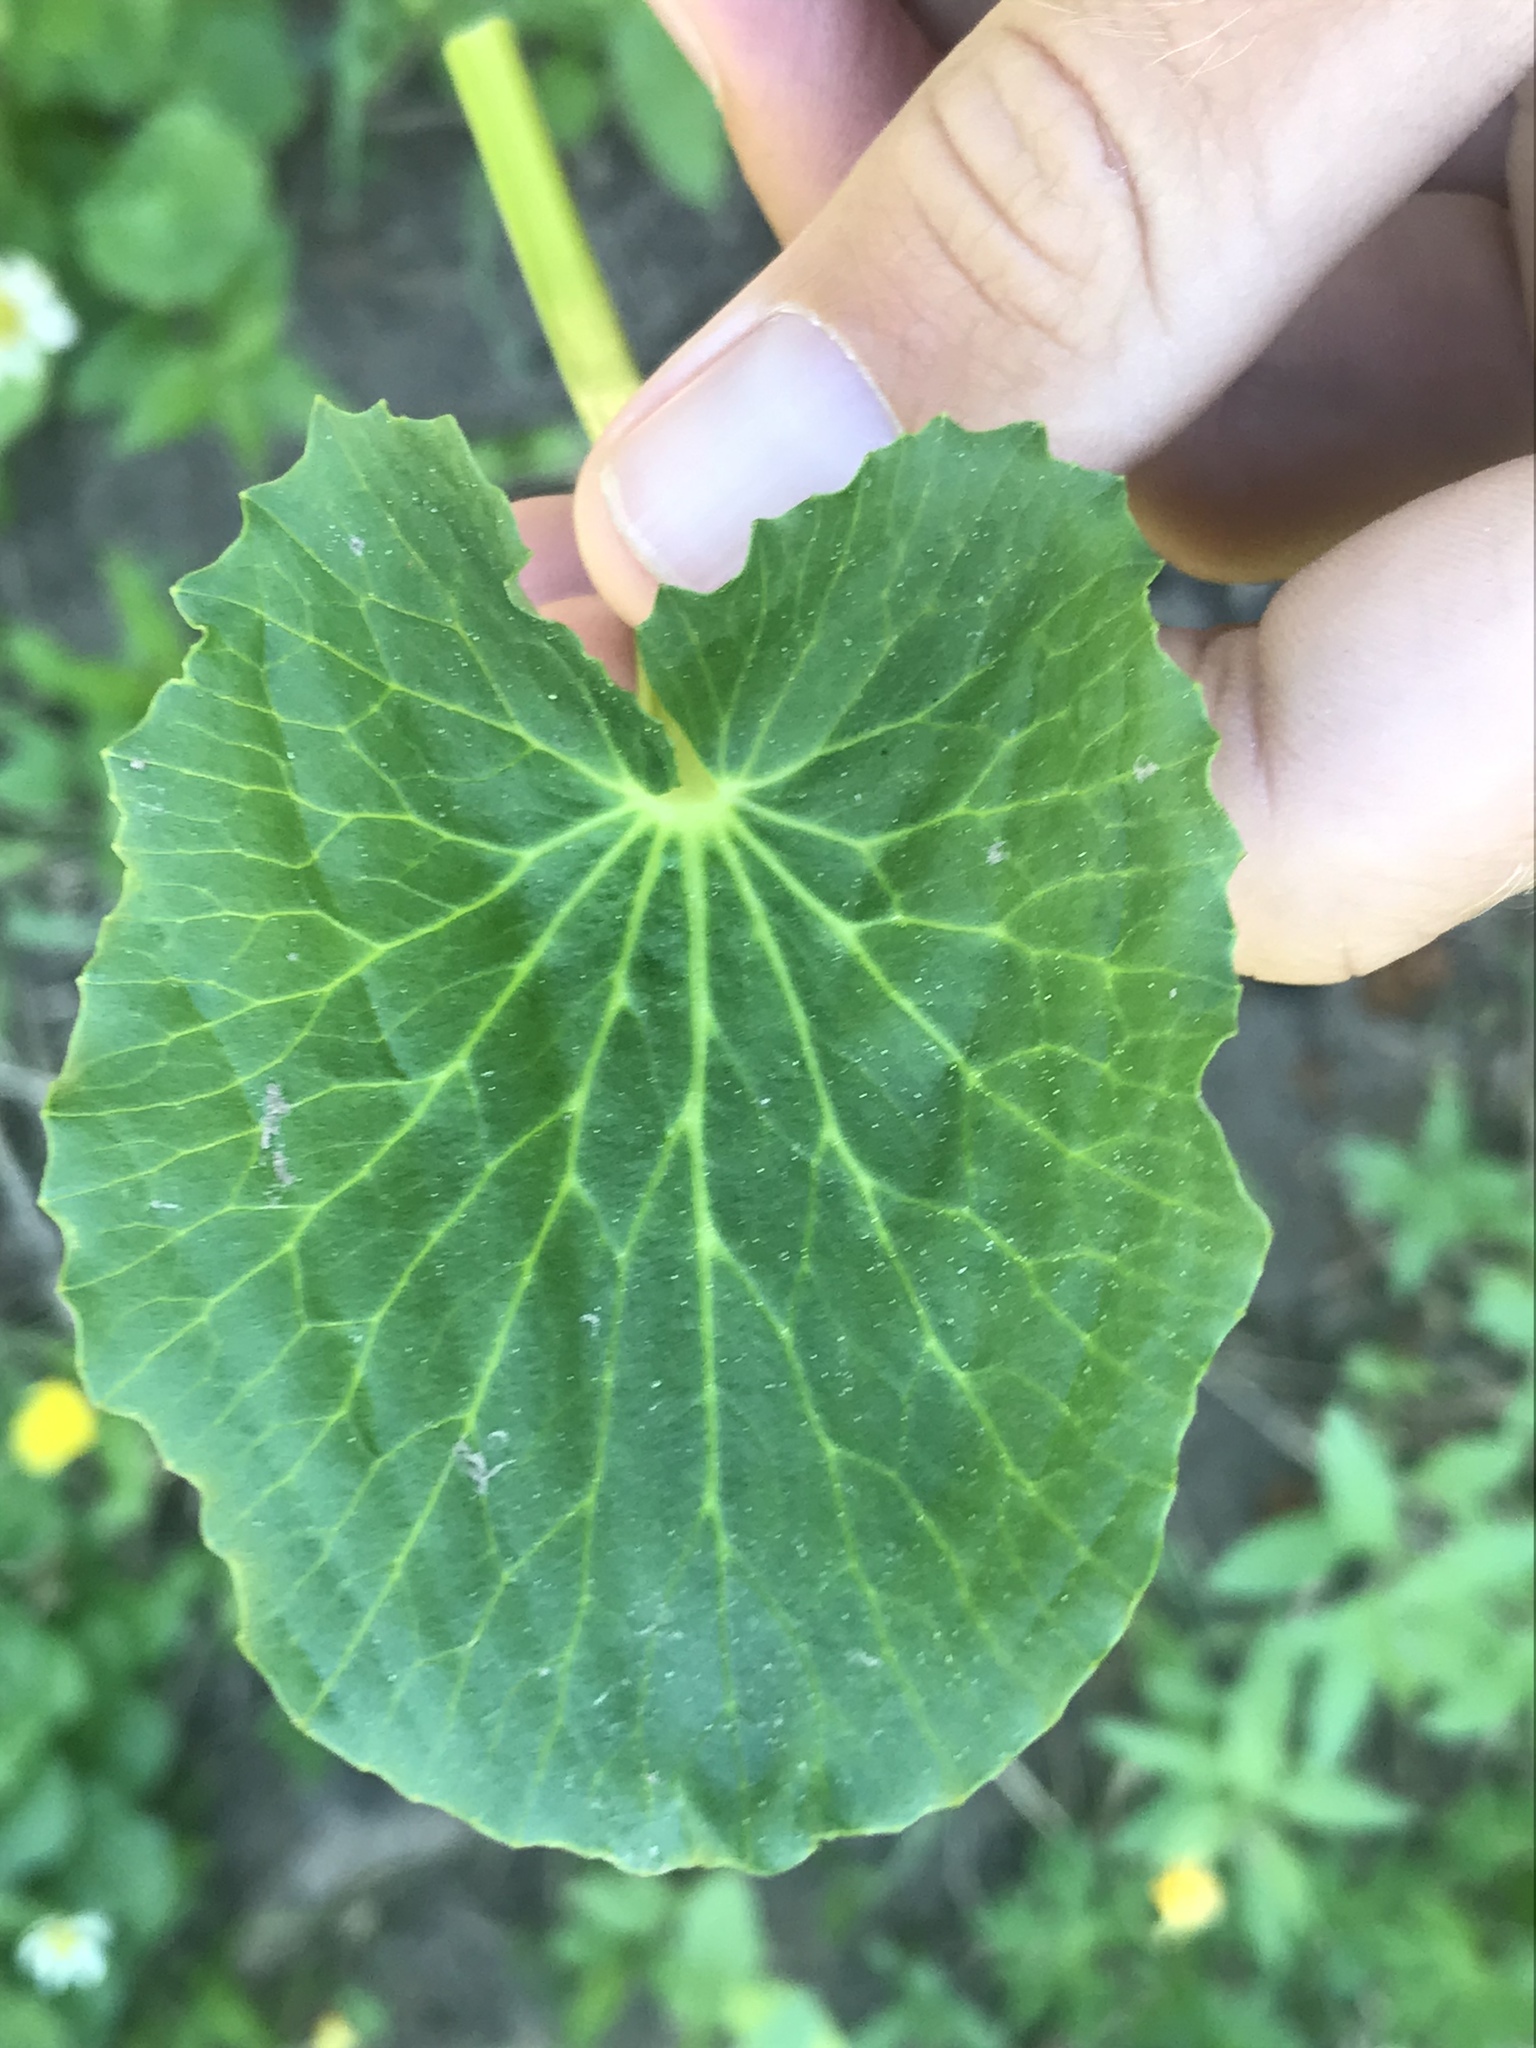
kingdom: Plantae
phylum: Tracheophyta
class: Magnoliopsida
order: Ranunculales
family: Ranunculaceae
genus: Caltha
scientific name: Caltha leptosepala
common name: Elkslip
